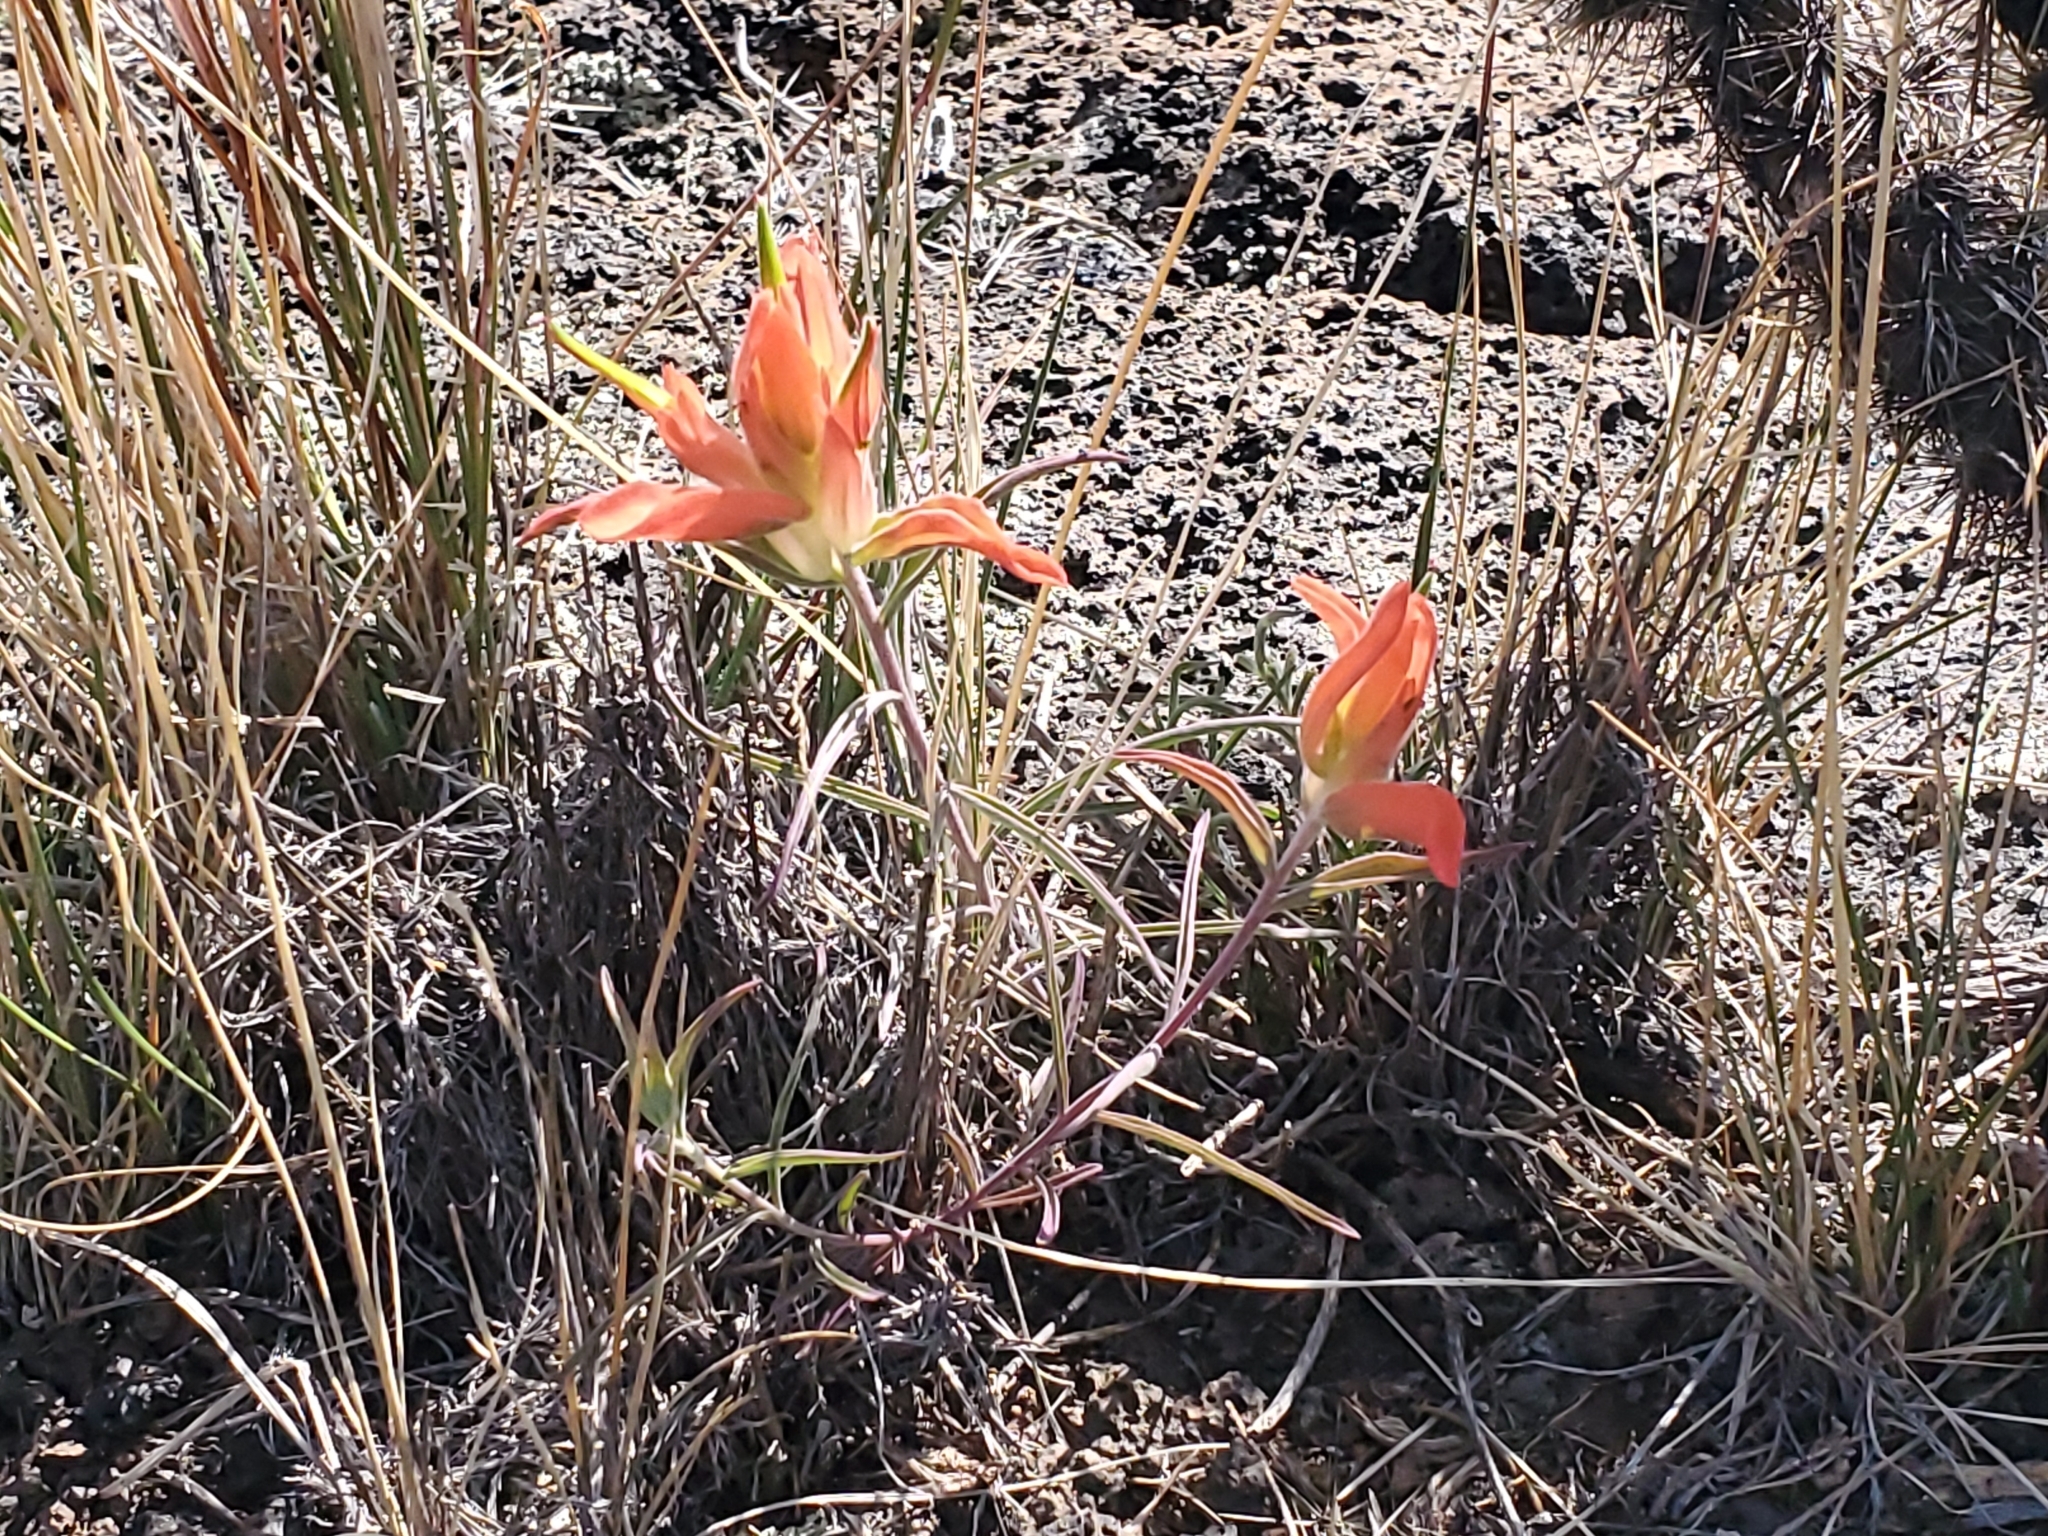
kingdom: Plantae
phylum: Tracheophyta
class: Magnoliopsida
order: Lamiales
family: Orobanchaceae
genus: Castilleja
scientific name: Castilleja integra
